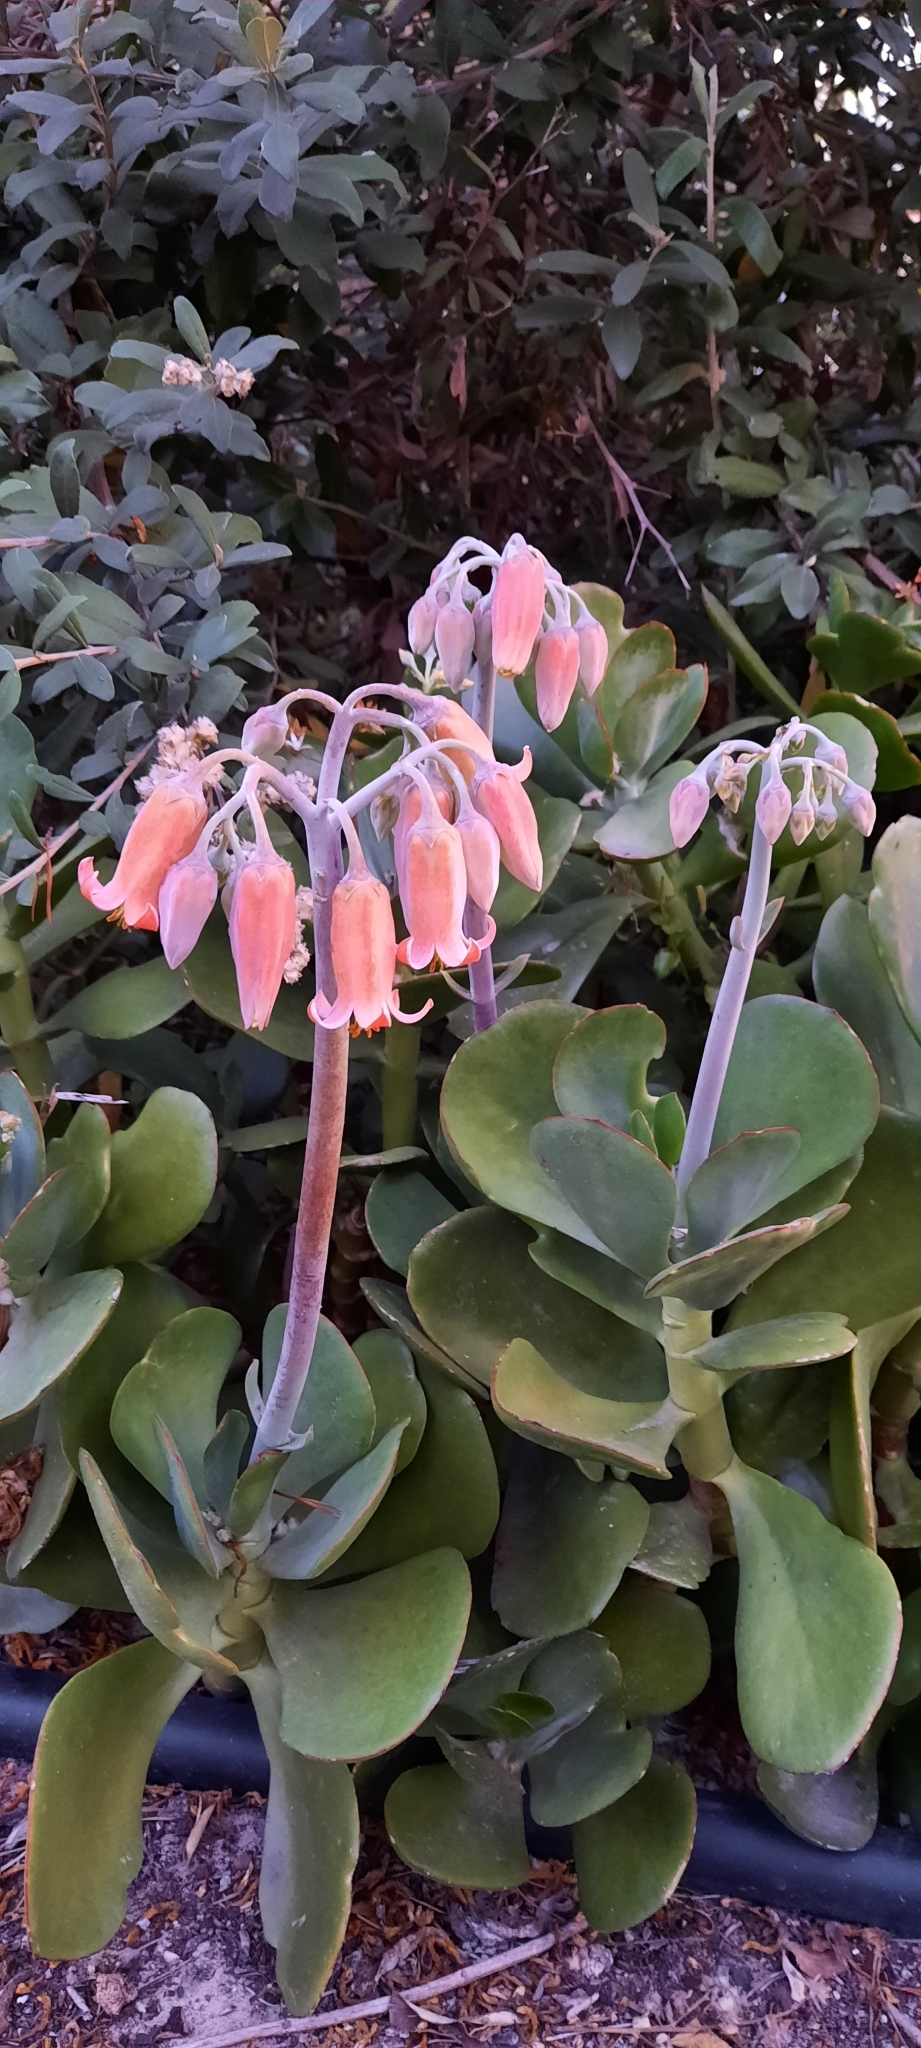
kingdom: Plantae
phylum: Tracheophyta
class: Magnoliopsida
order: Saxifragales
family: Crassulaceae
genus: Cotyledon
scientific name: Cotyledon orbiculata
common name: Pig's ear
